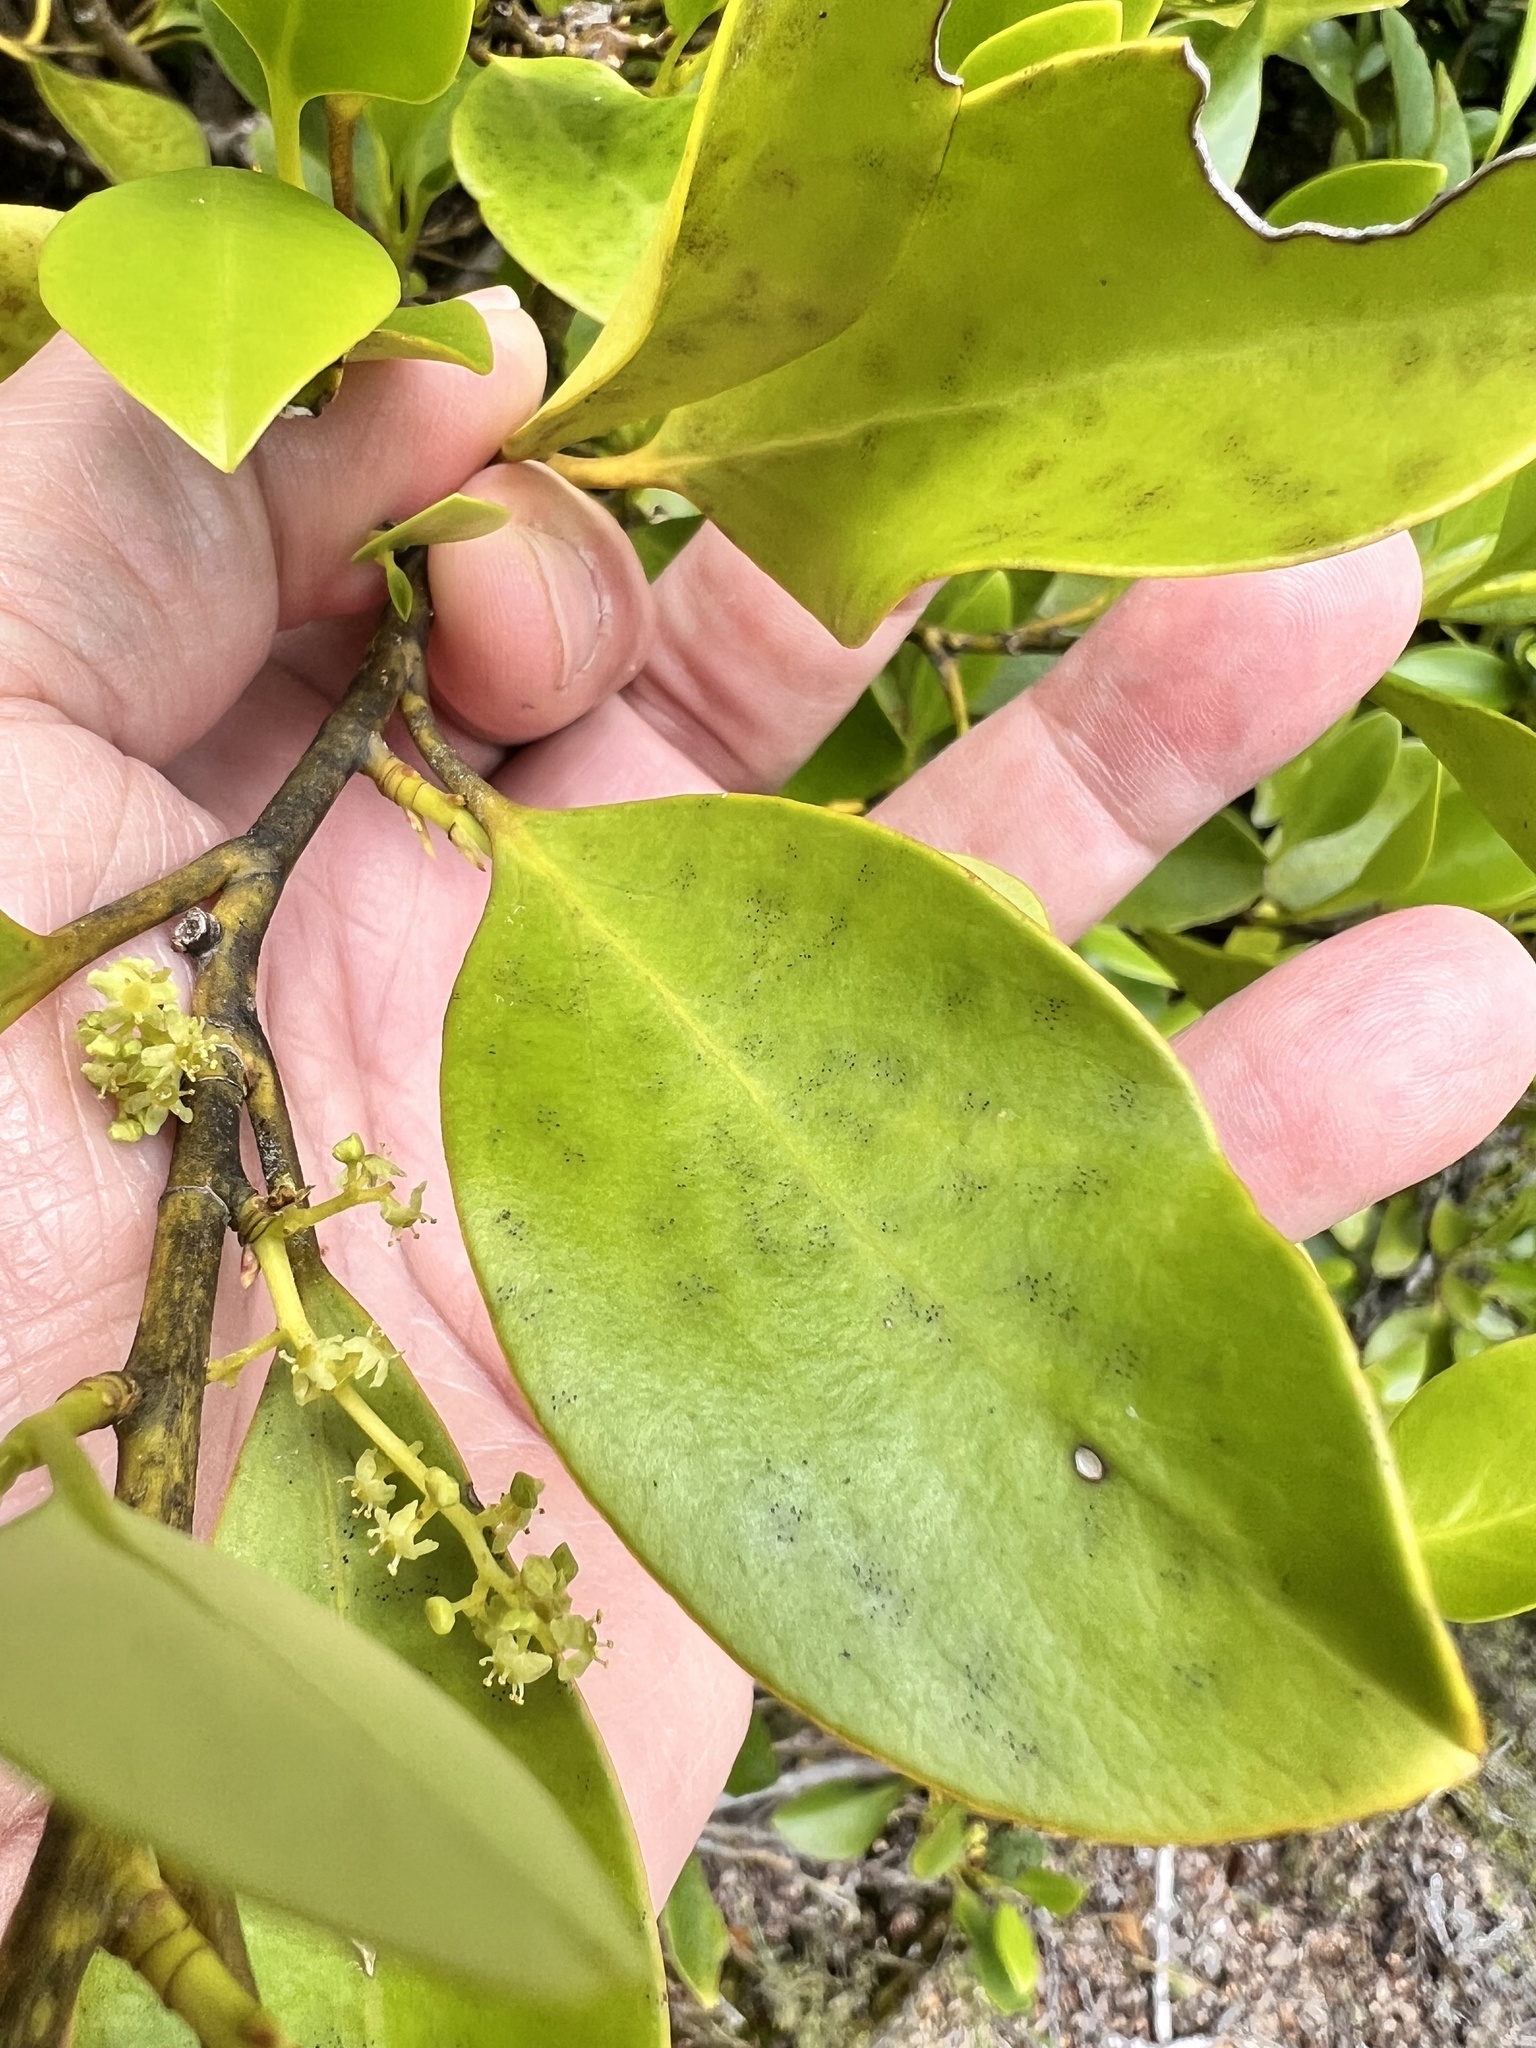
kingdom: Plantae
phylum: Tracheophyta
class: Magnoliopsida
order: Apiales
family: Griseliniaceae
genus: Griselinia
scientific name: Griselinia littoralis
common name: New zealand broadleaf
